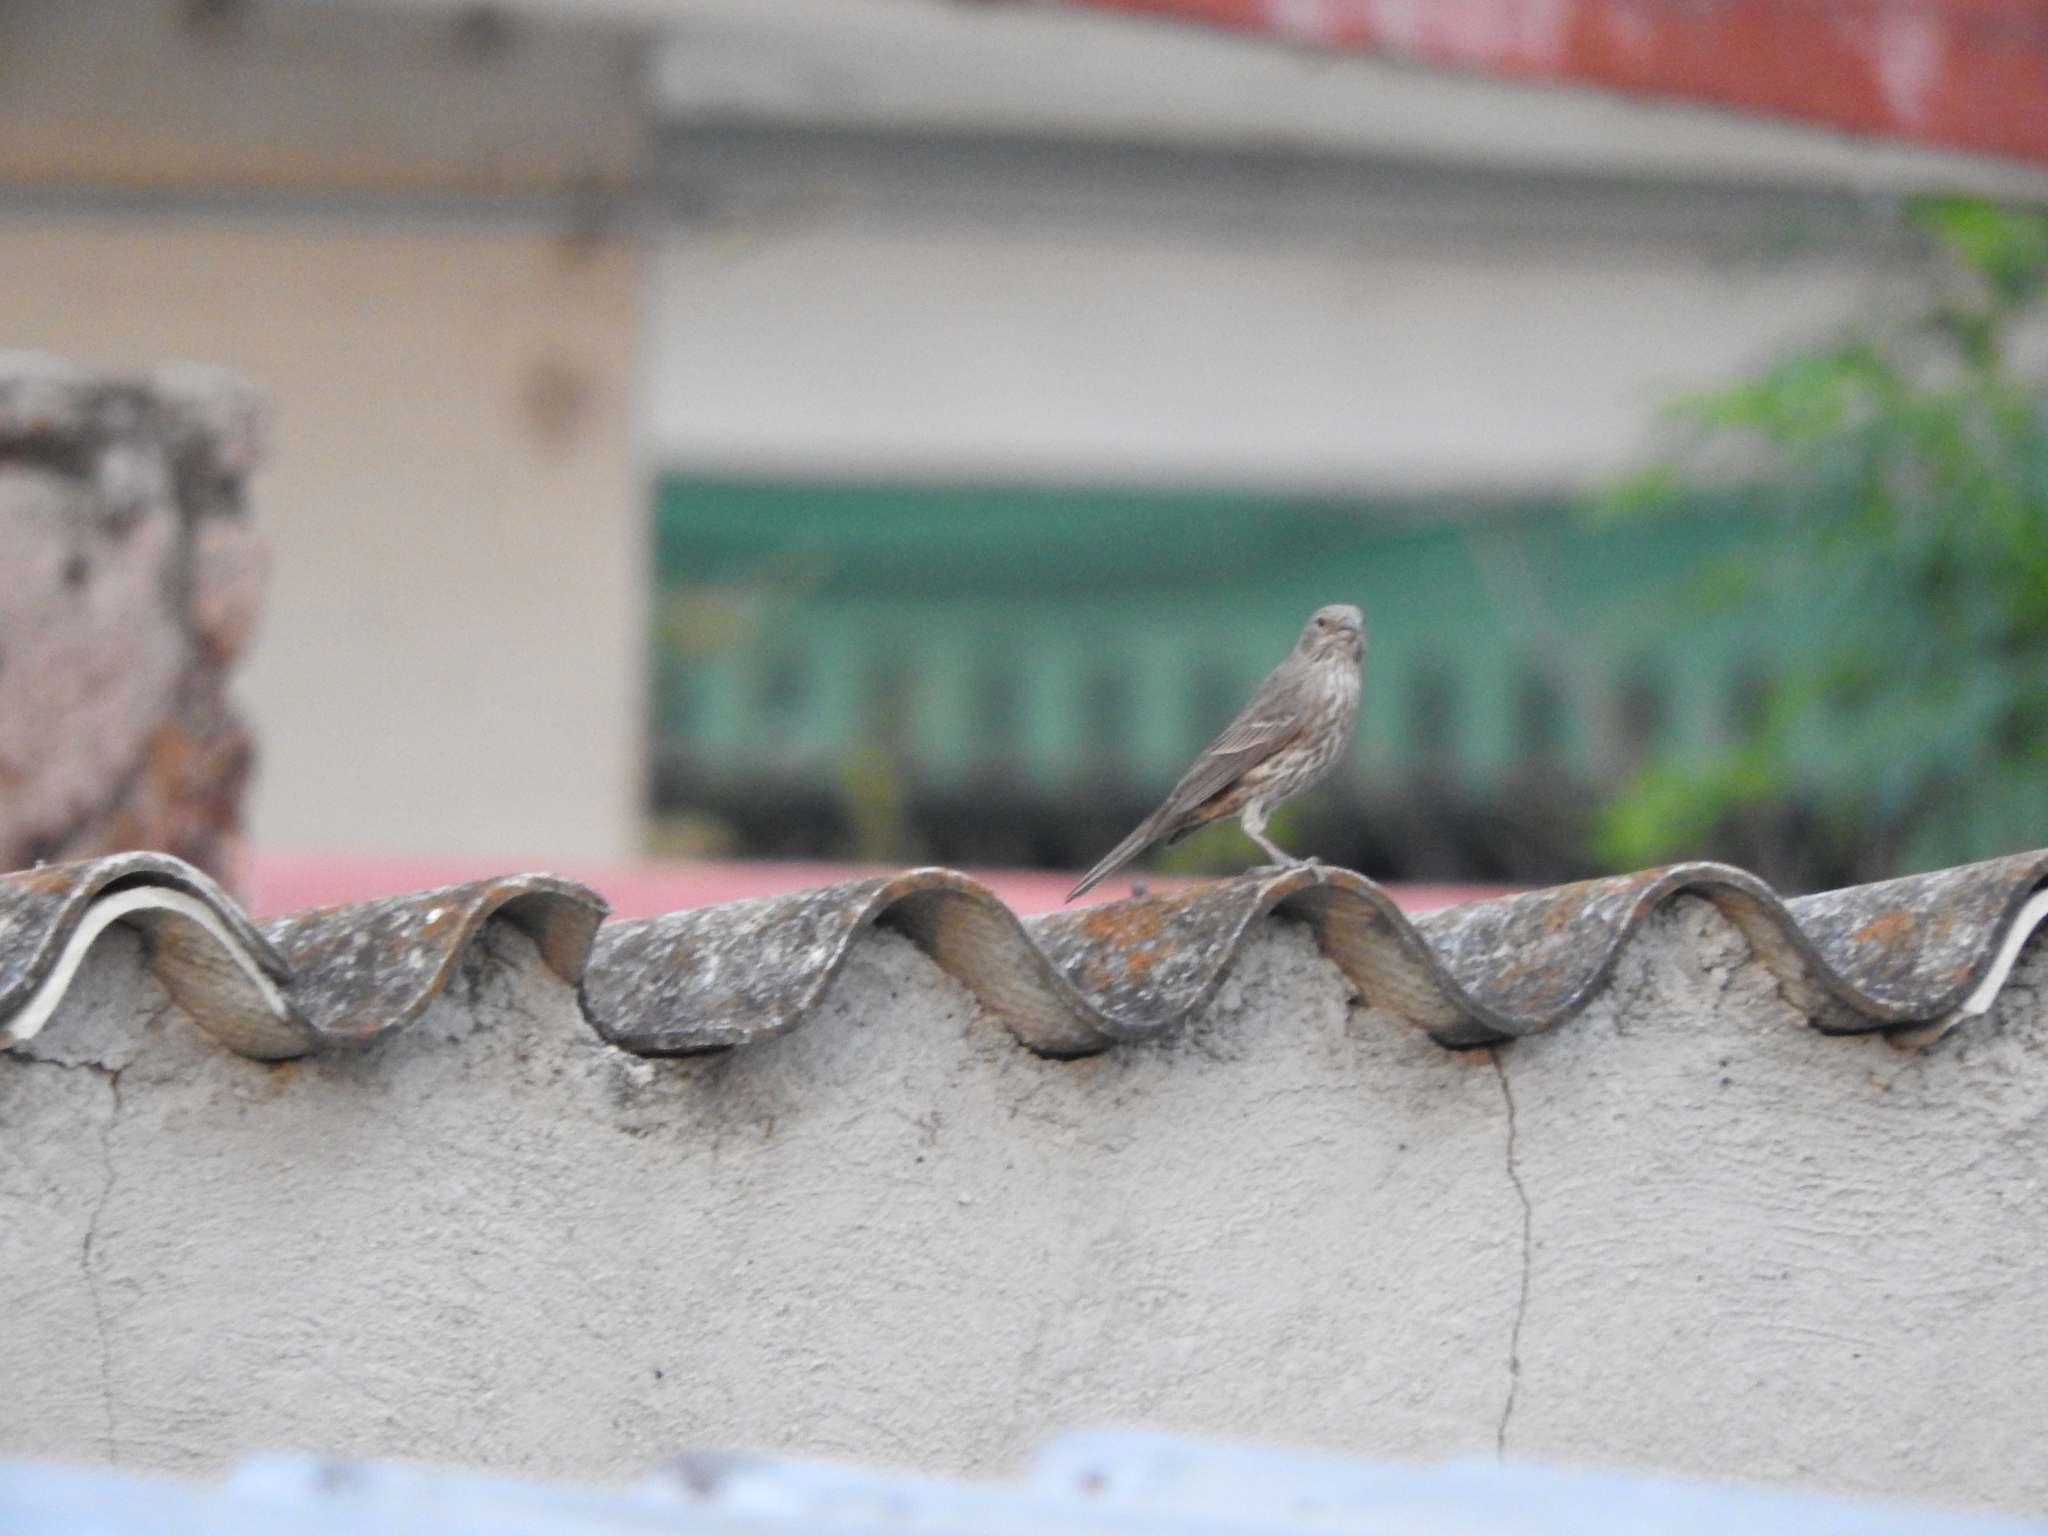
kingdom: Animalia
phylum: Chordata
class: Aves
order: Passeriformes
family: Fringillidae
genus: Haemorhous
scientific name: Haemorhous mexicanus
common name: House finch
